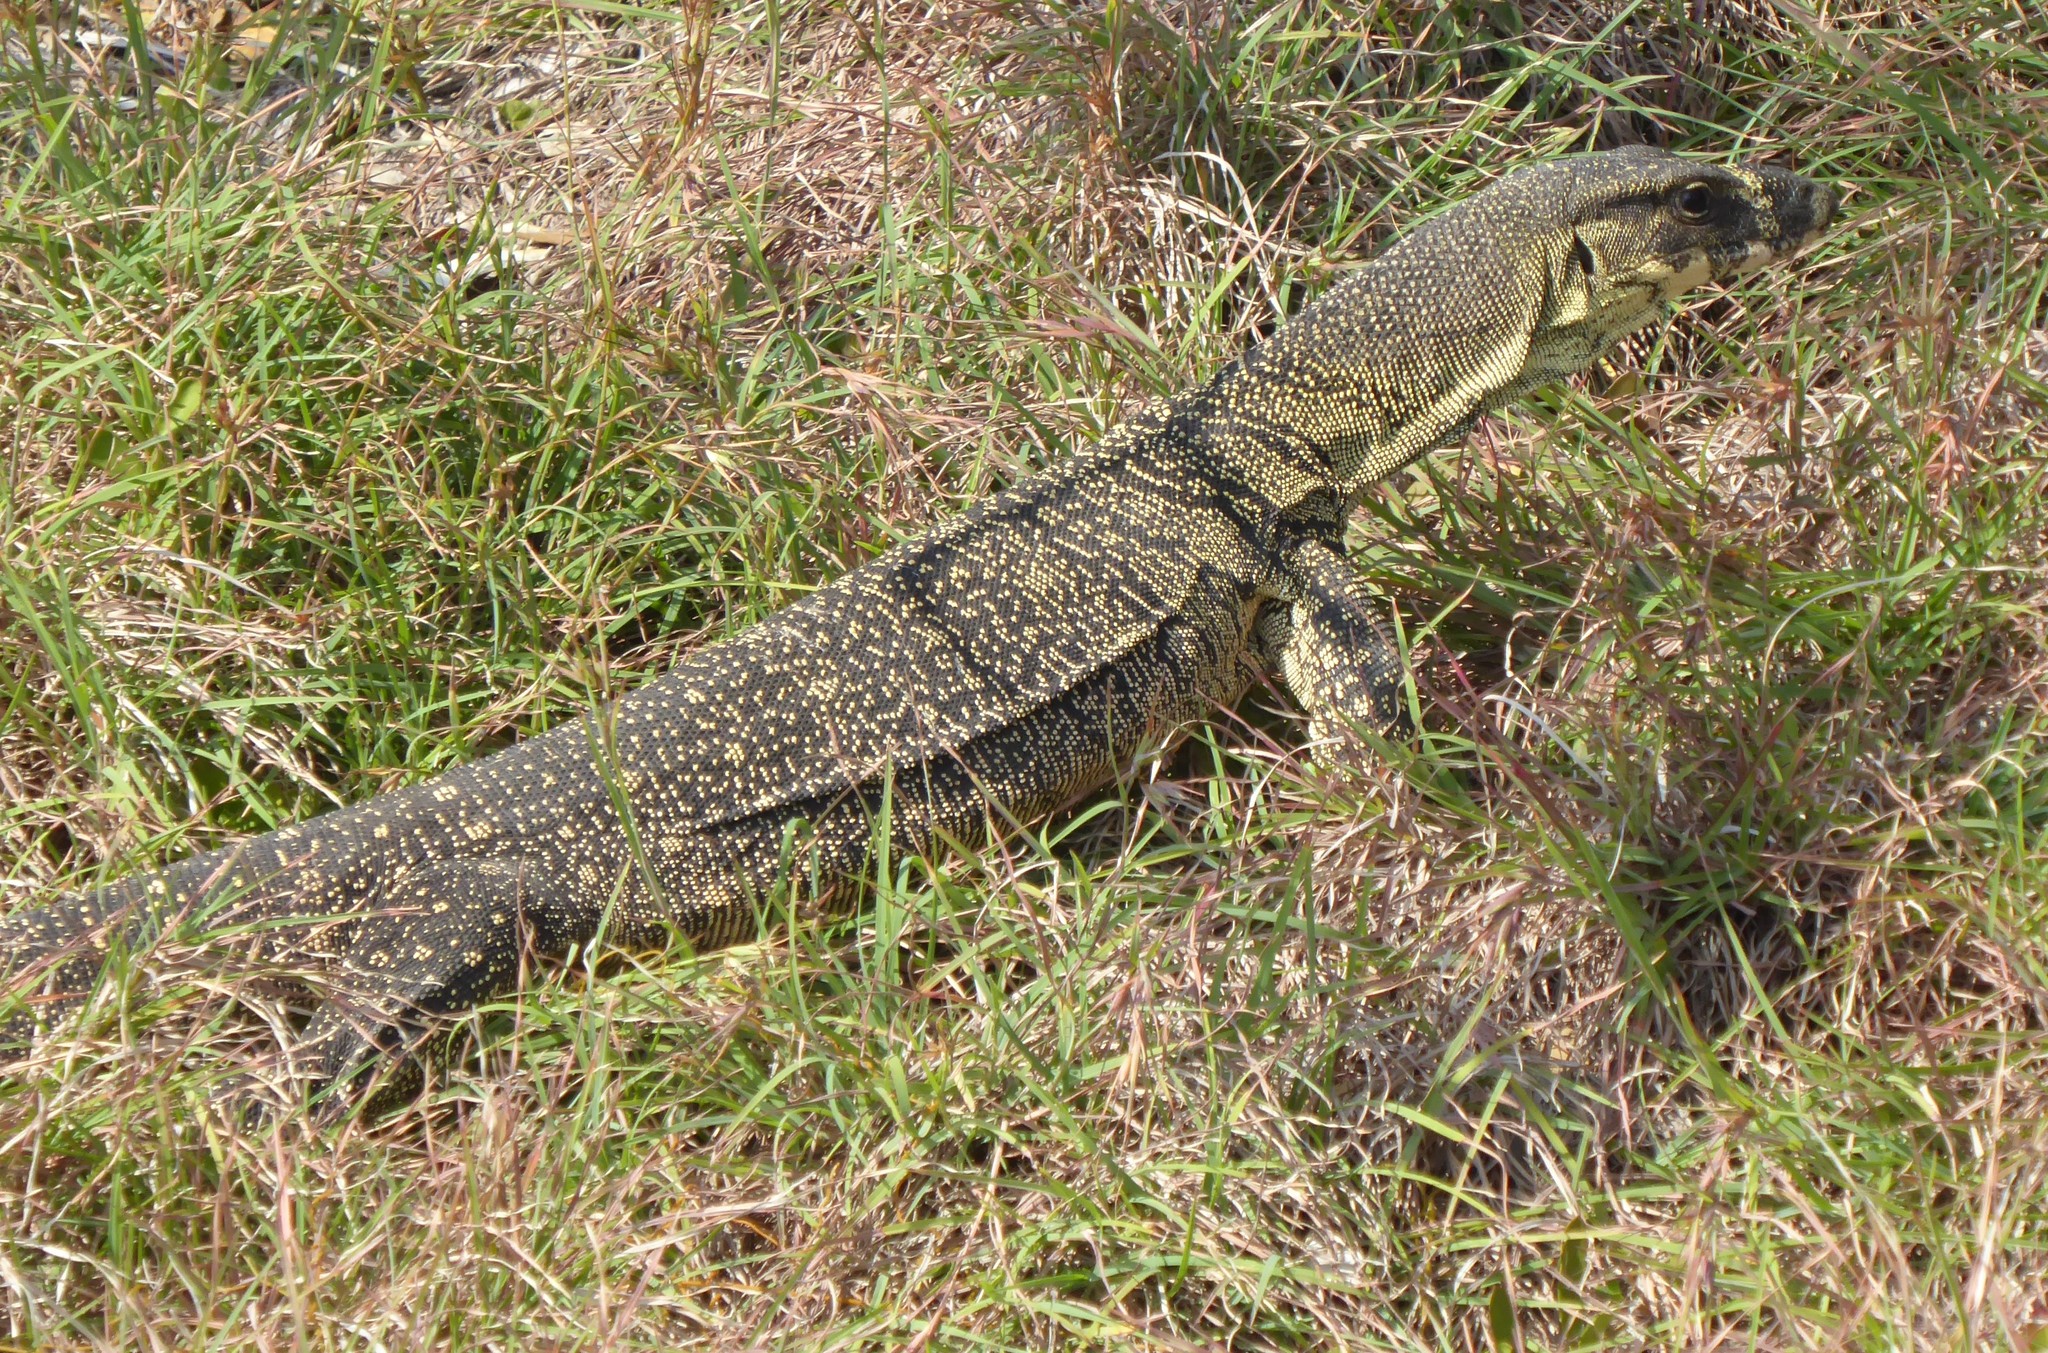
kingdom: Animalia
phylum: Chordata
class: Squamata
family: Varanidae
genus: Varanus
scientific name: Varanus varius
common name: Lace monitor
